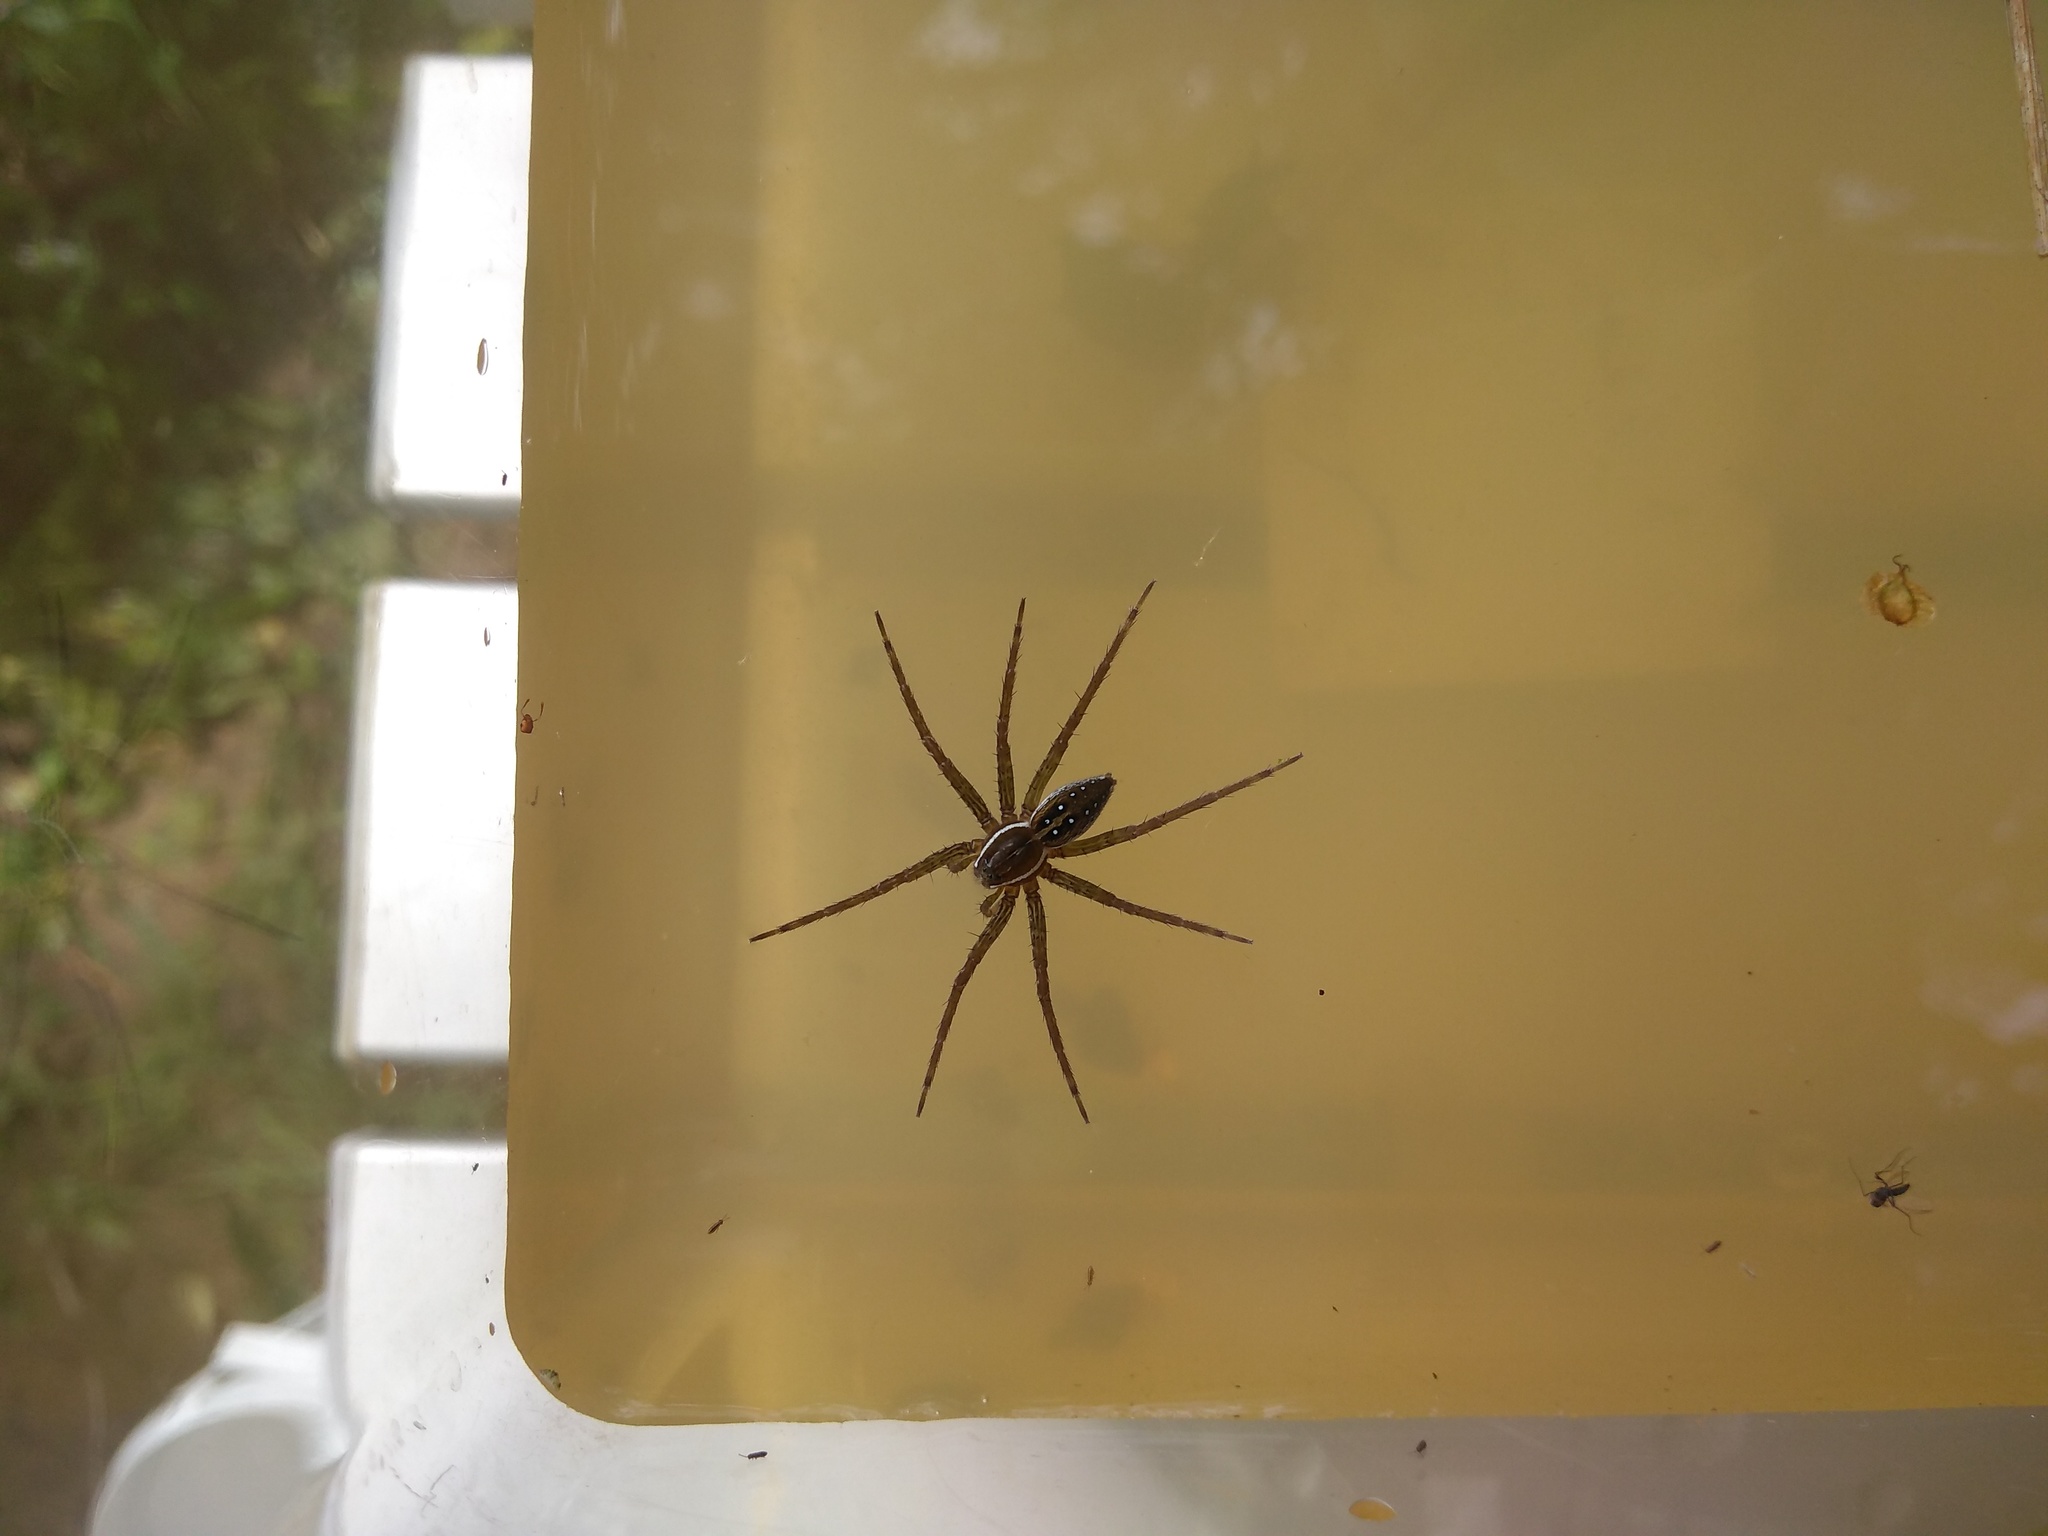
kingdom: Animalia
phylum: Arthropoda
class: Arachnida
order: Araneae
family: Pisauridae
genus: Dolomedes
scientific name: Dolomedes triton
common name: Six-spotted fishing spider
